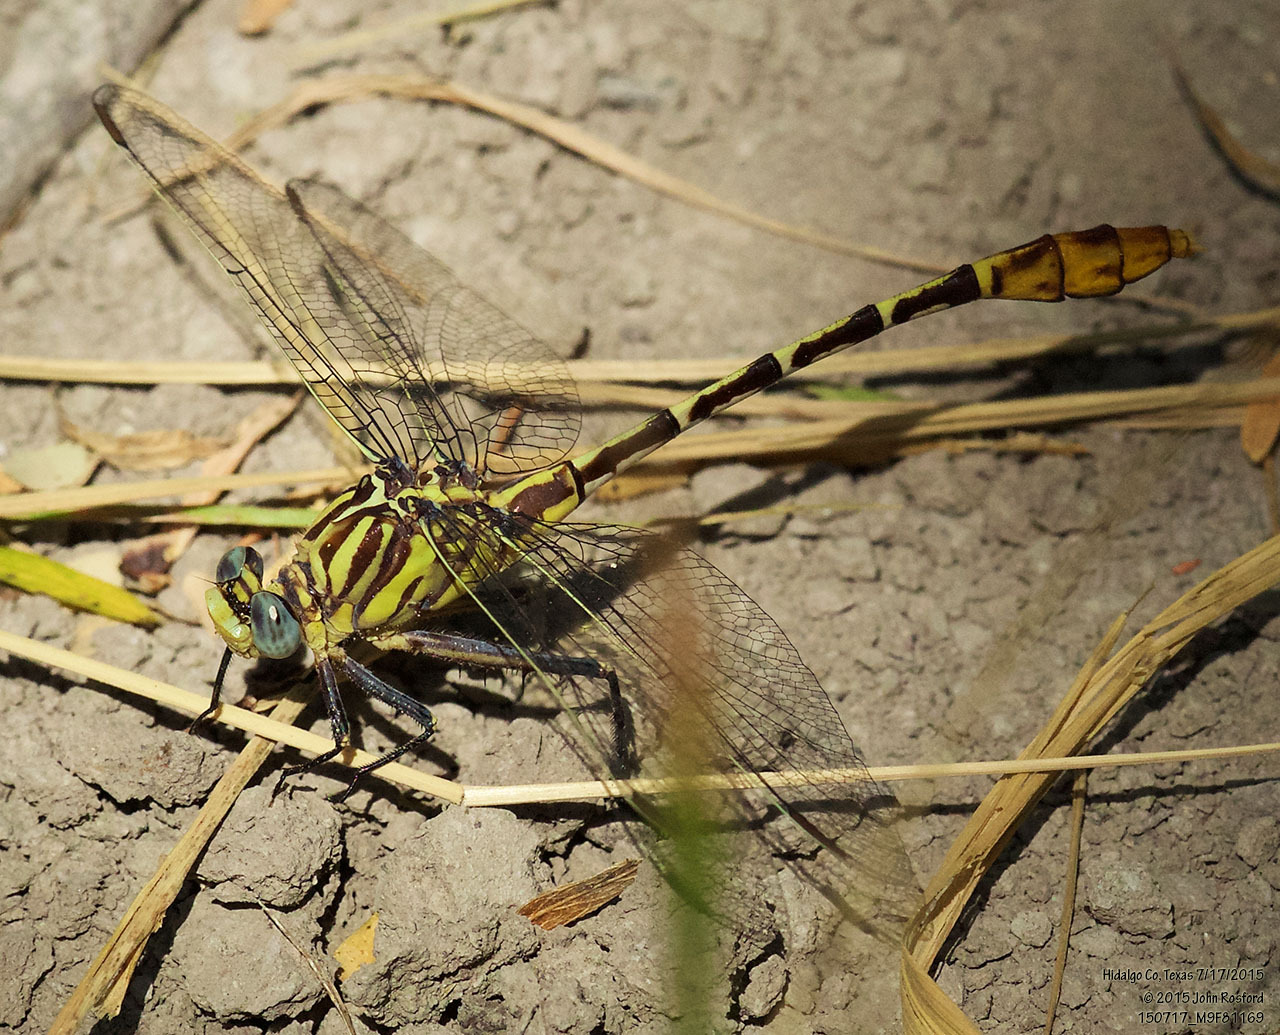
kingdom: Animalia
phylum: Arthropoda
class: Insecta
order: Odonata
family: Gomphidae
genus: Dromogomphus
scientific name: Dromogomphus spoliatus
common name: Flag-tailed spinyleg
